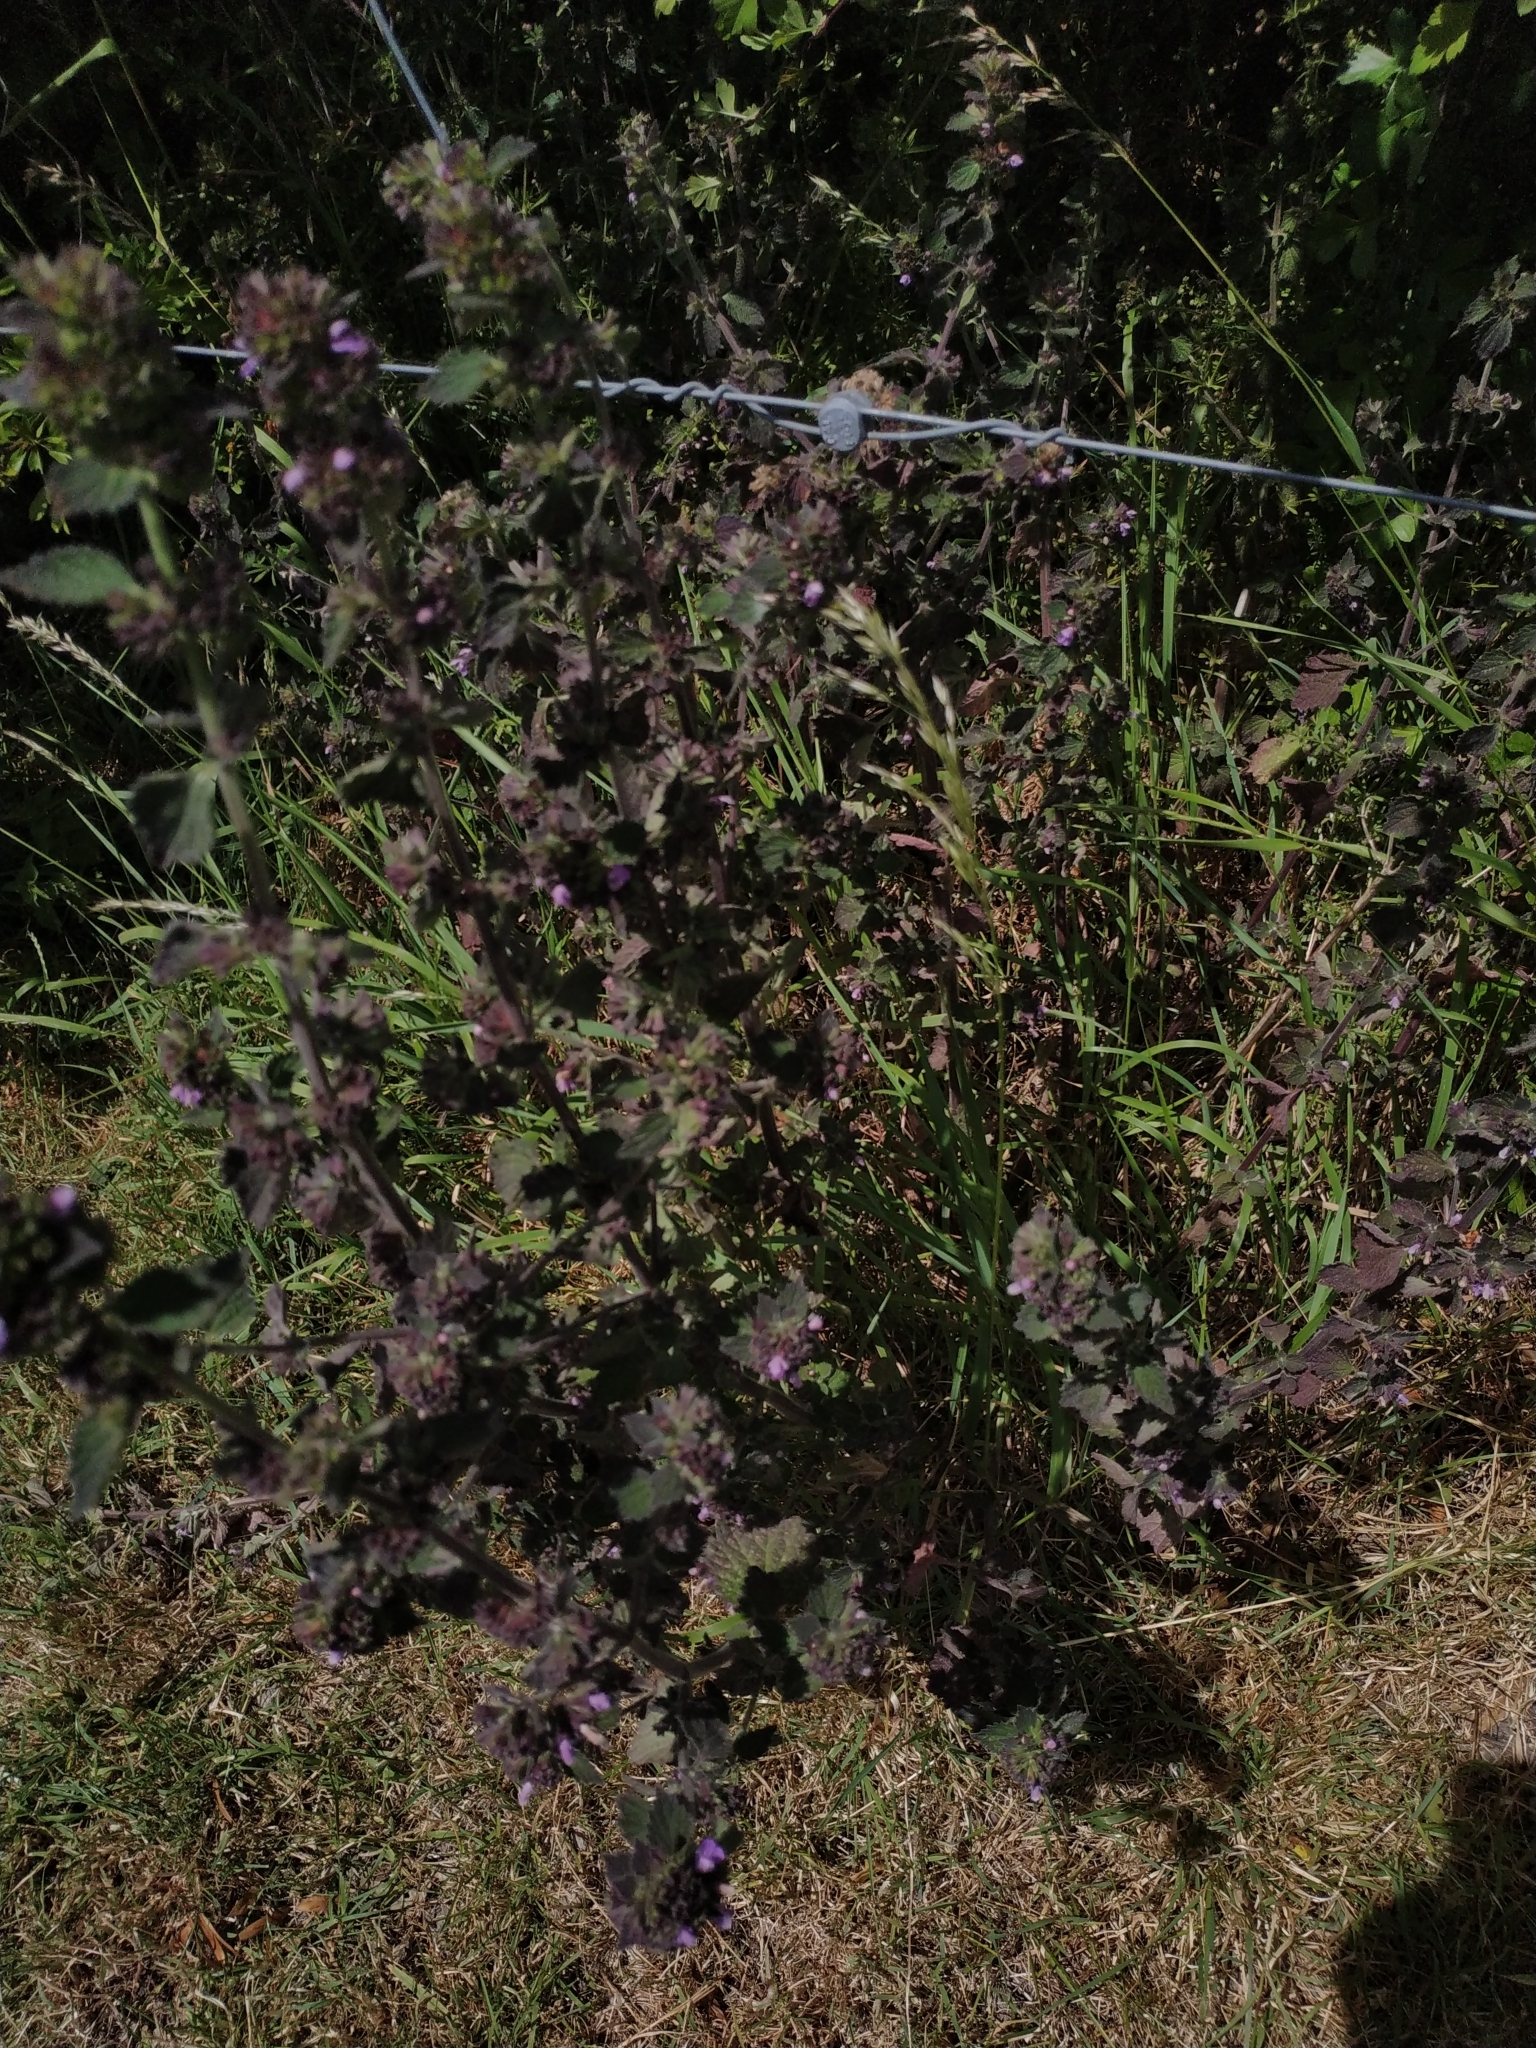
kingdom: Plantae
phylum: Tracheophyta
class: Magnoliopsida
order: Lamiales
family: Lamiaceae
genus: Ballota
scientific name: Ballota nigra
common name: Black horehound
